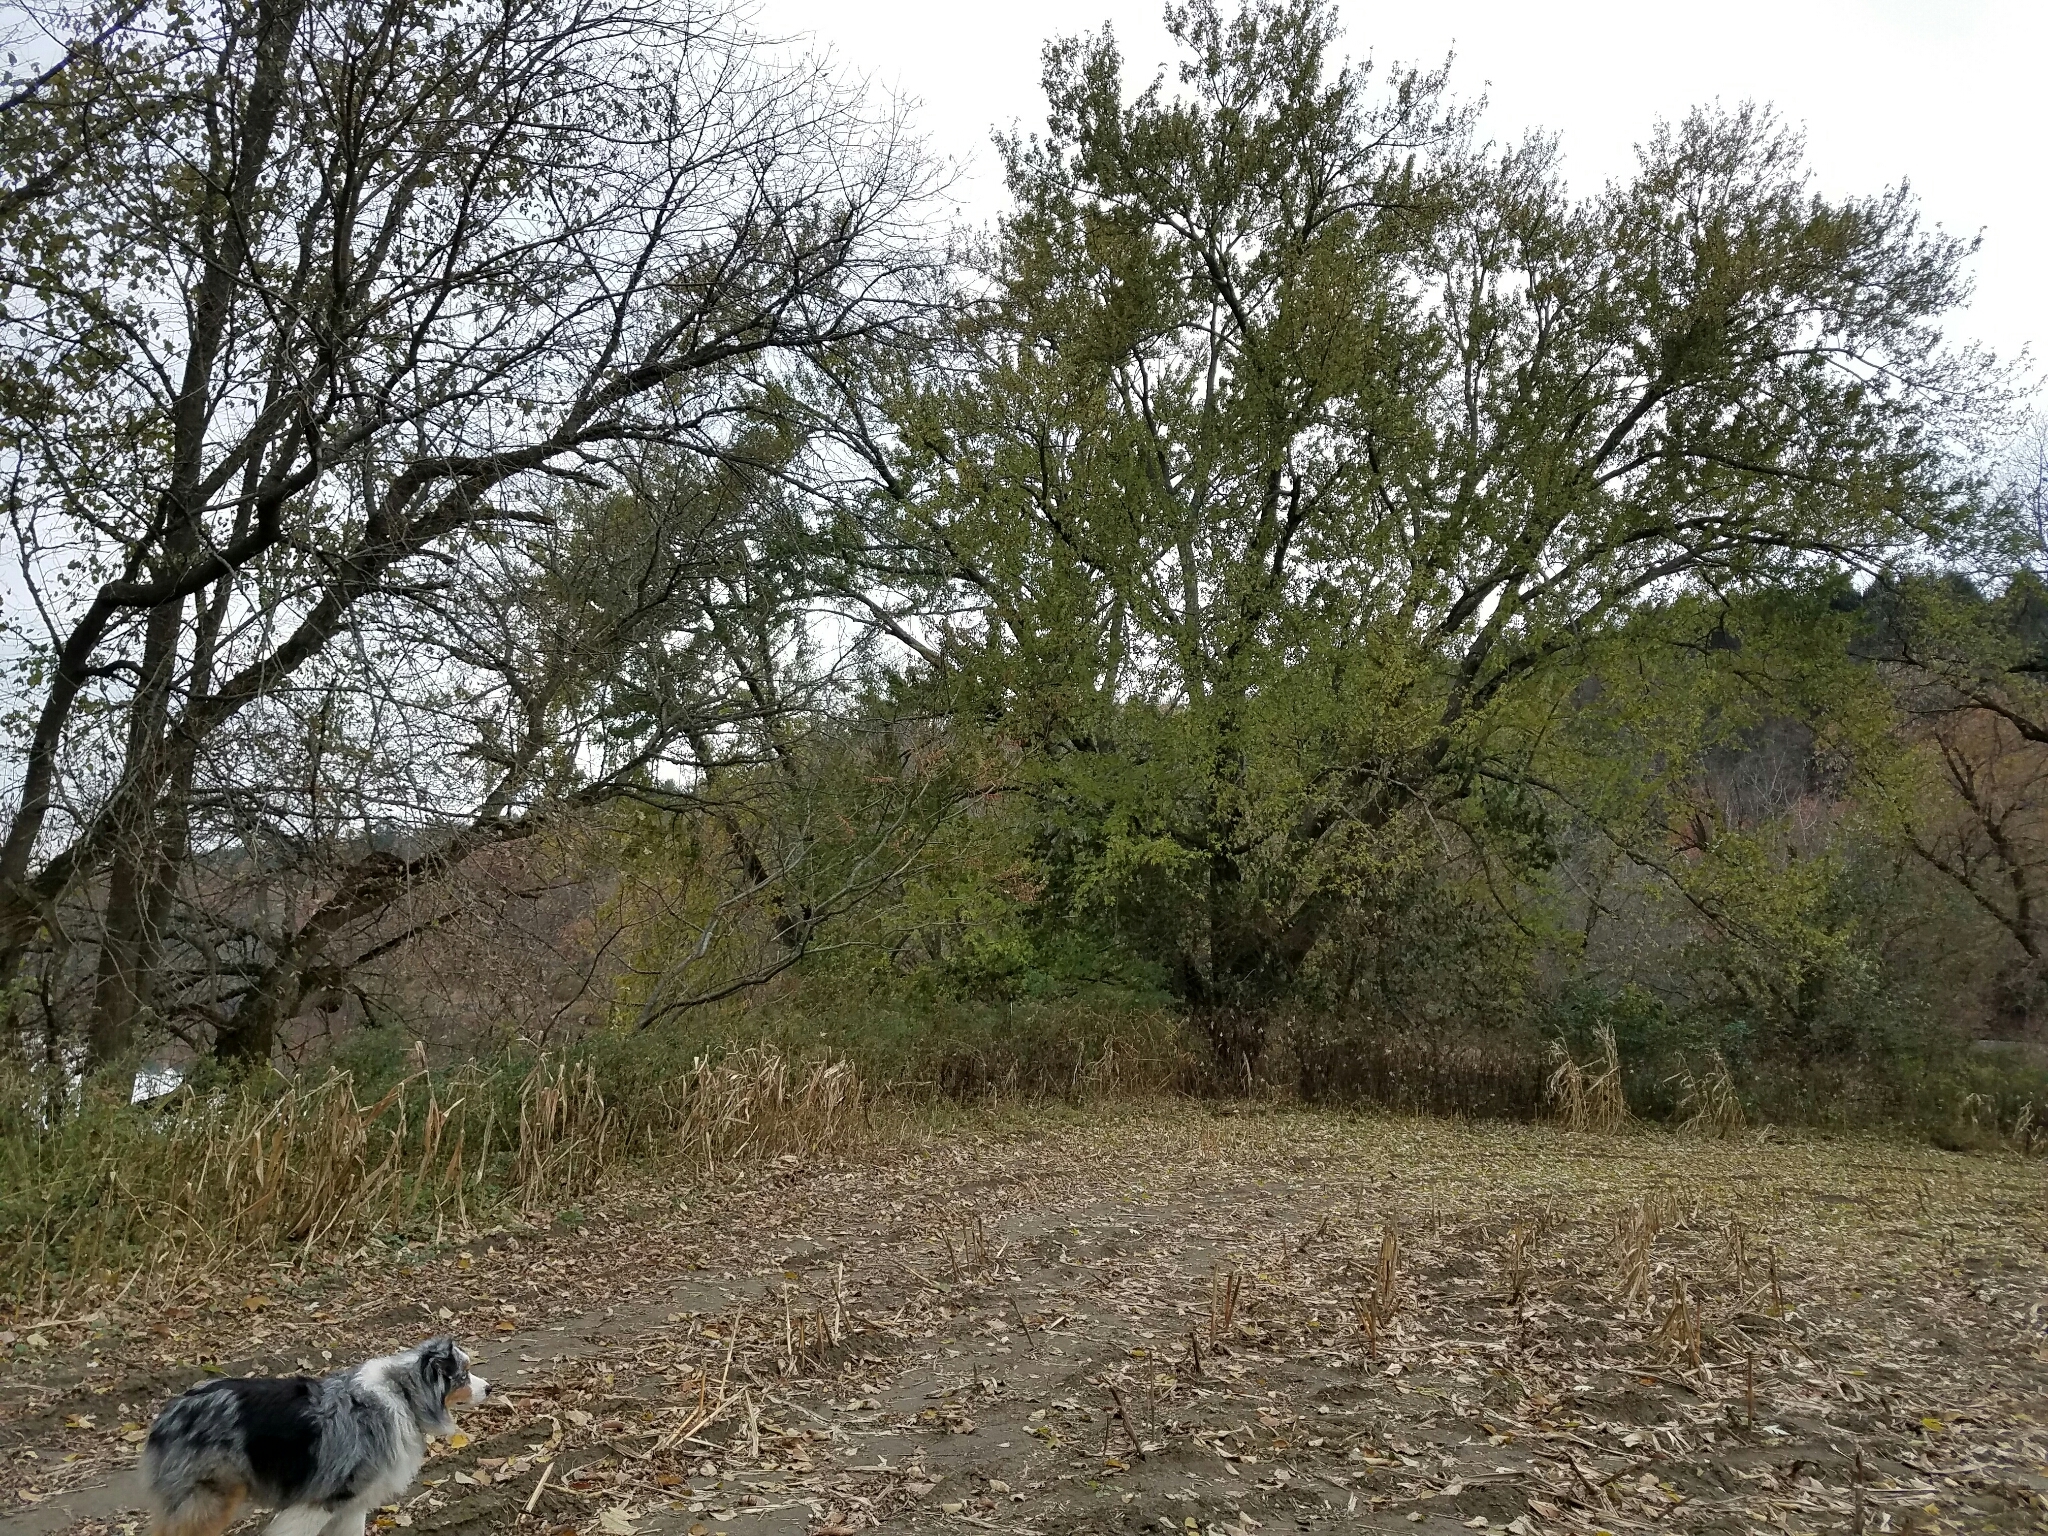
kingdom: Plantae
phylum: Tracheophyta
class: Magnoliopsida
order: Sapindales
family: Sapindaceae
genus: Acer
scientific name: Acer saccharinum
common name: Silver maple
